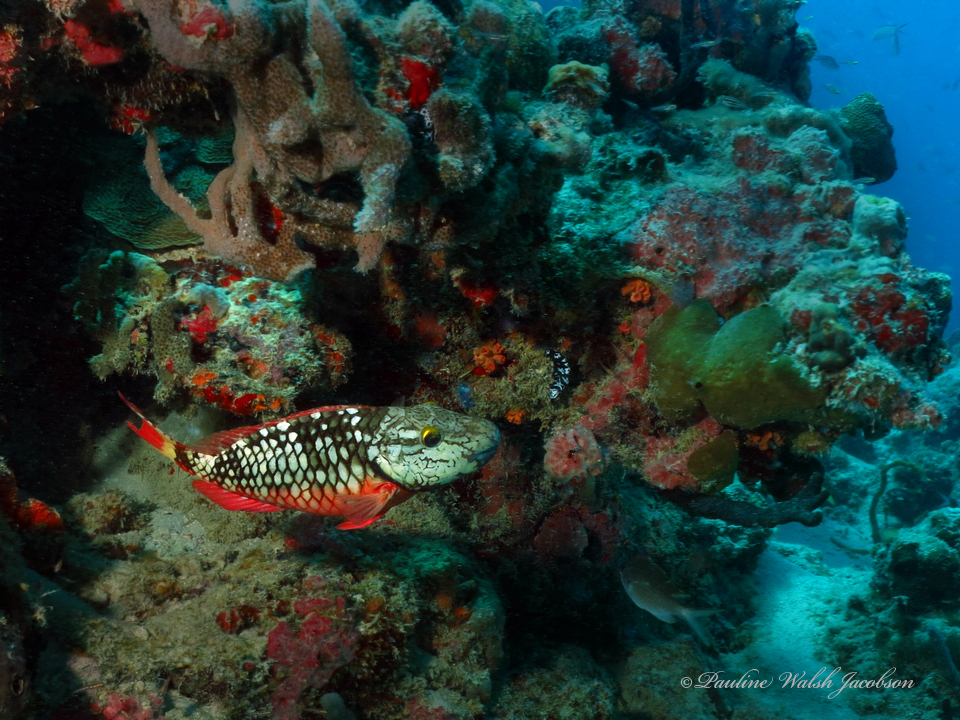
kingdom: Animalia
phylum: Chordata
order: Perciformes
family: Scaridae
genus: Sparisoma
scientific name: Sparisoma viride
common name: Stoplight parrotfish
